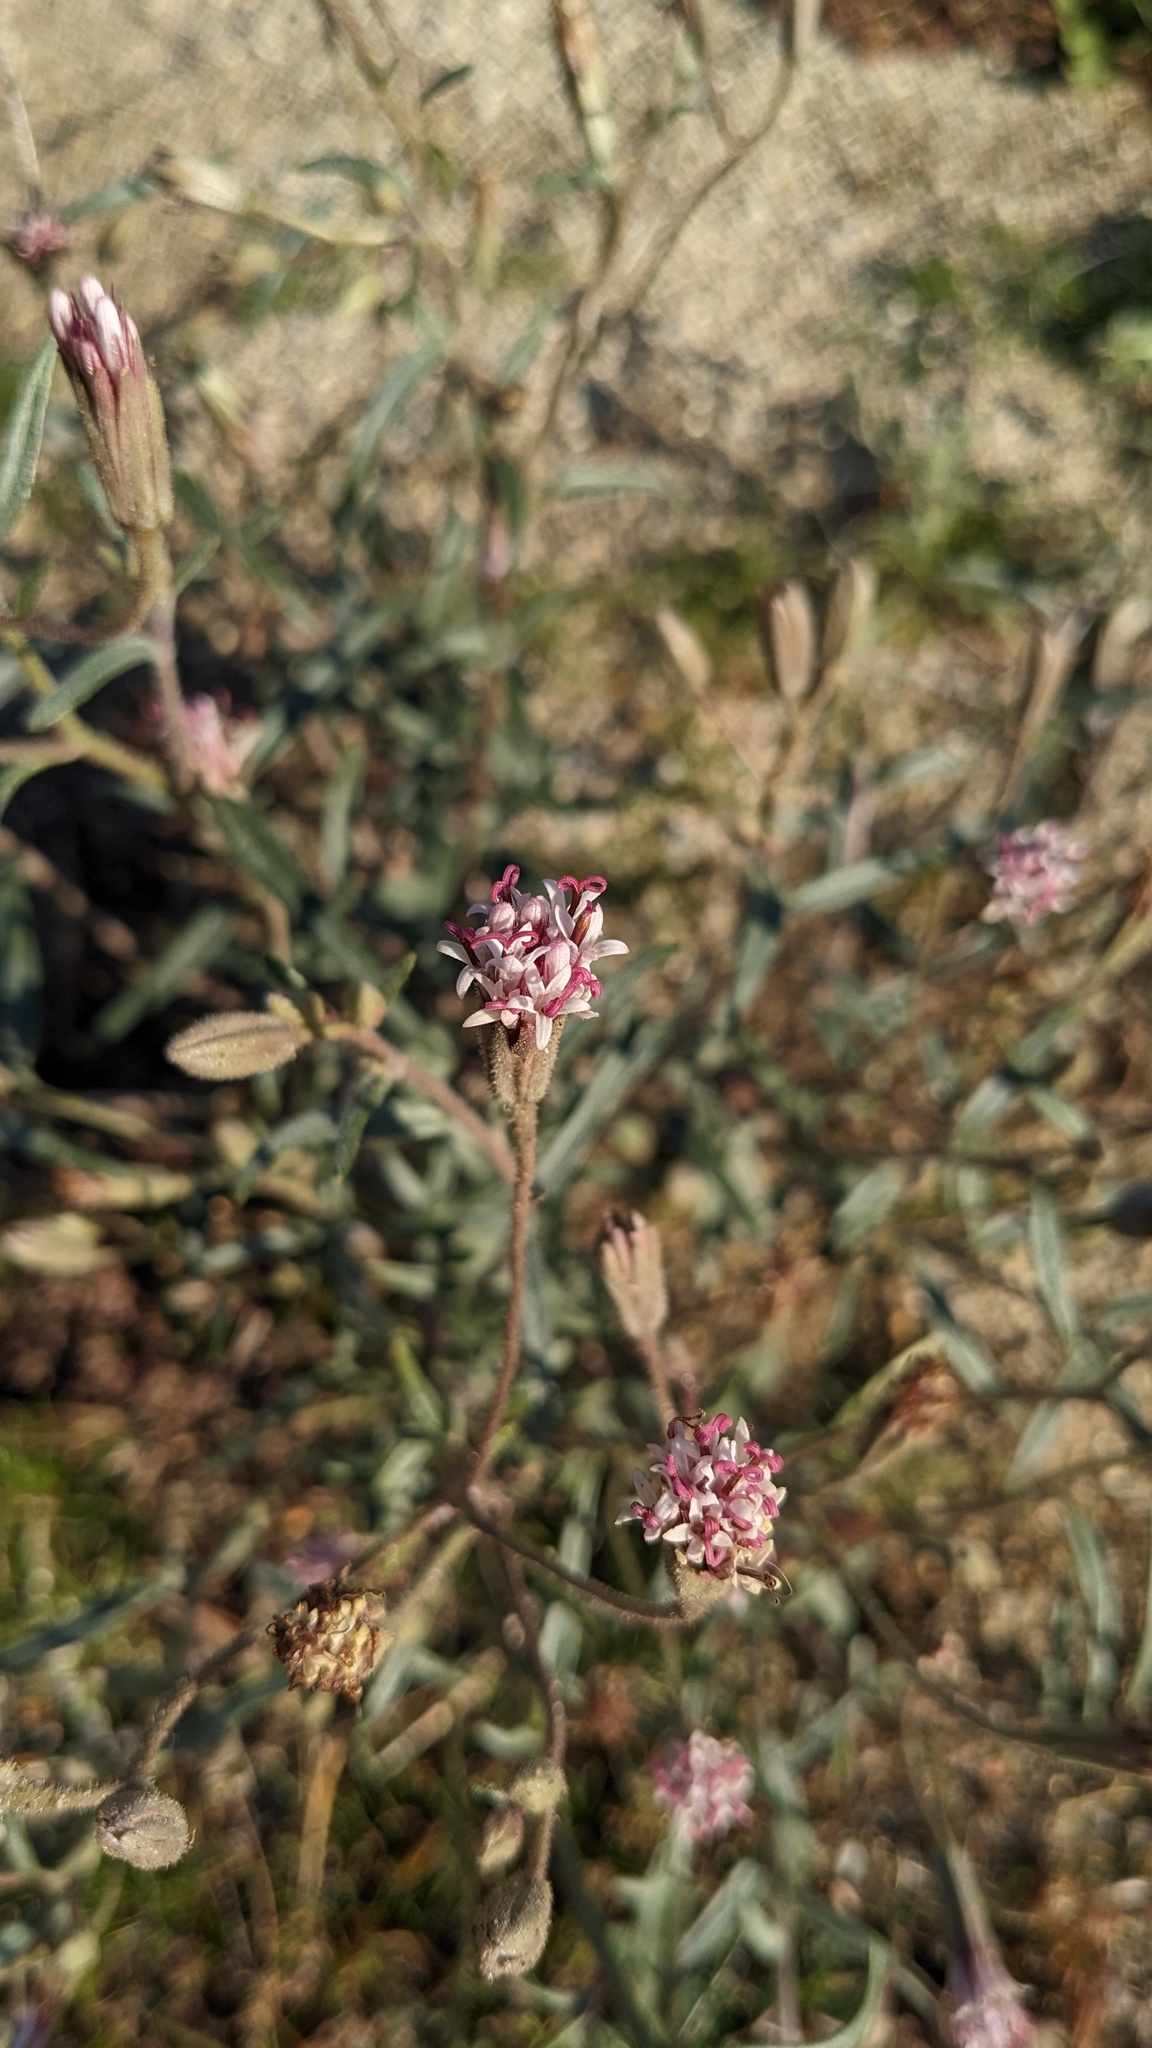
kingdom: Plantae
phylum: Tracheophyta
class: Magnoliopsida
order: Asterales
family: Asteraceae
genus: Palafoxia
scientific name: Palafoxia arida
